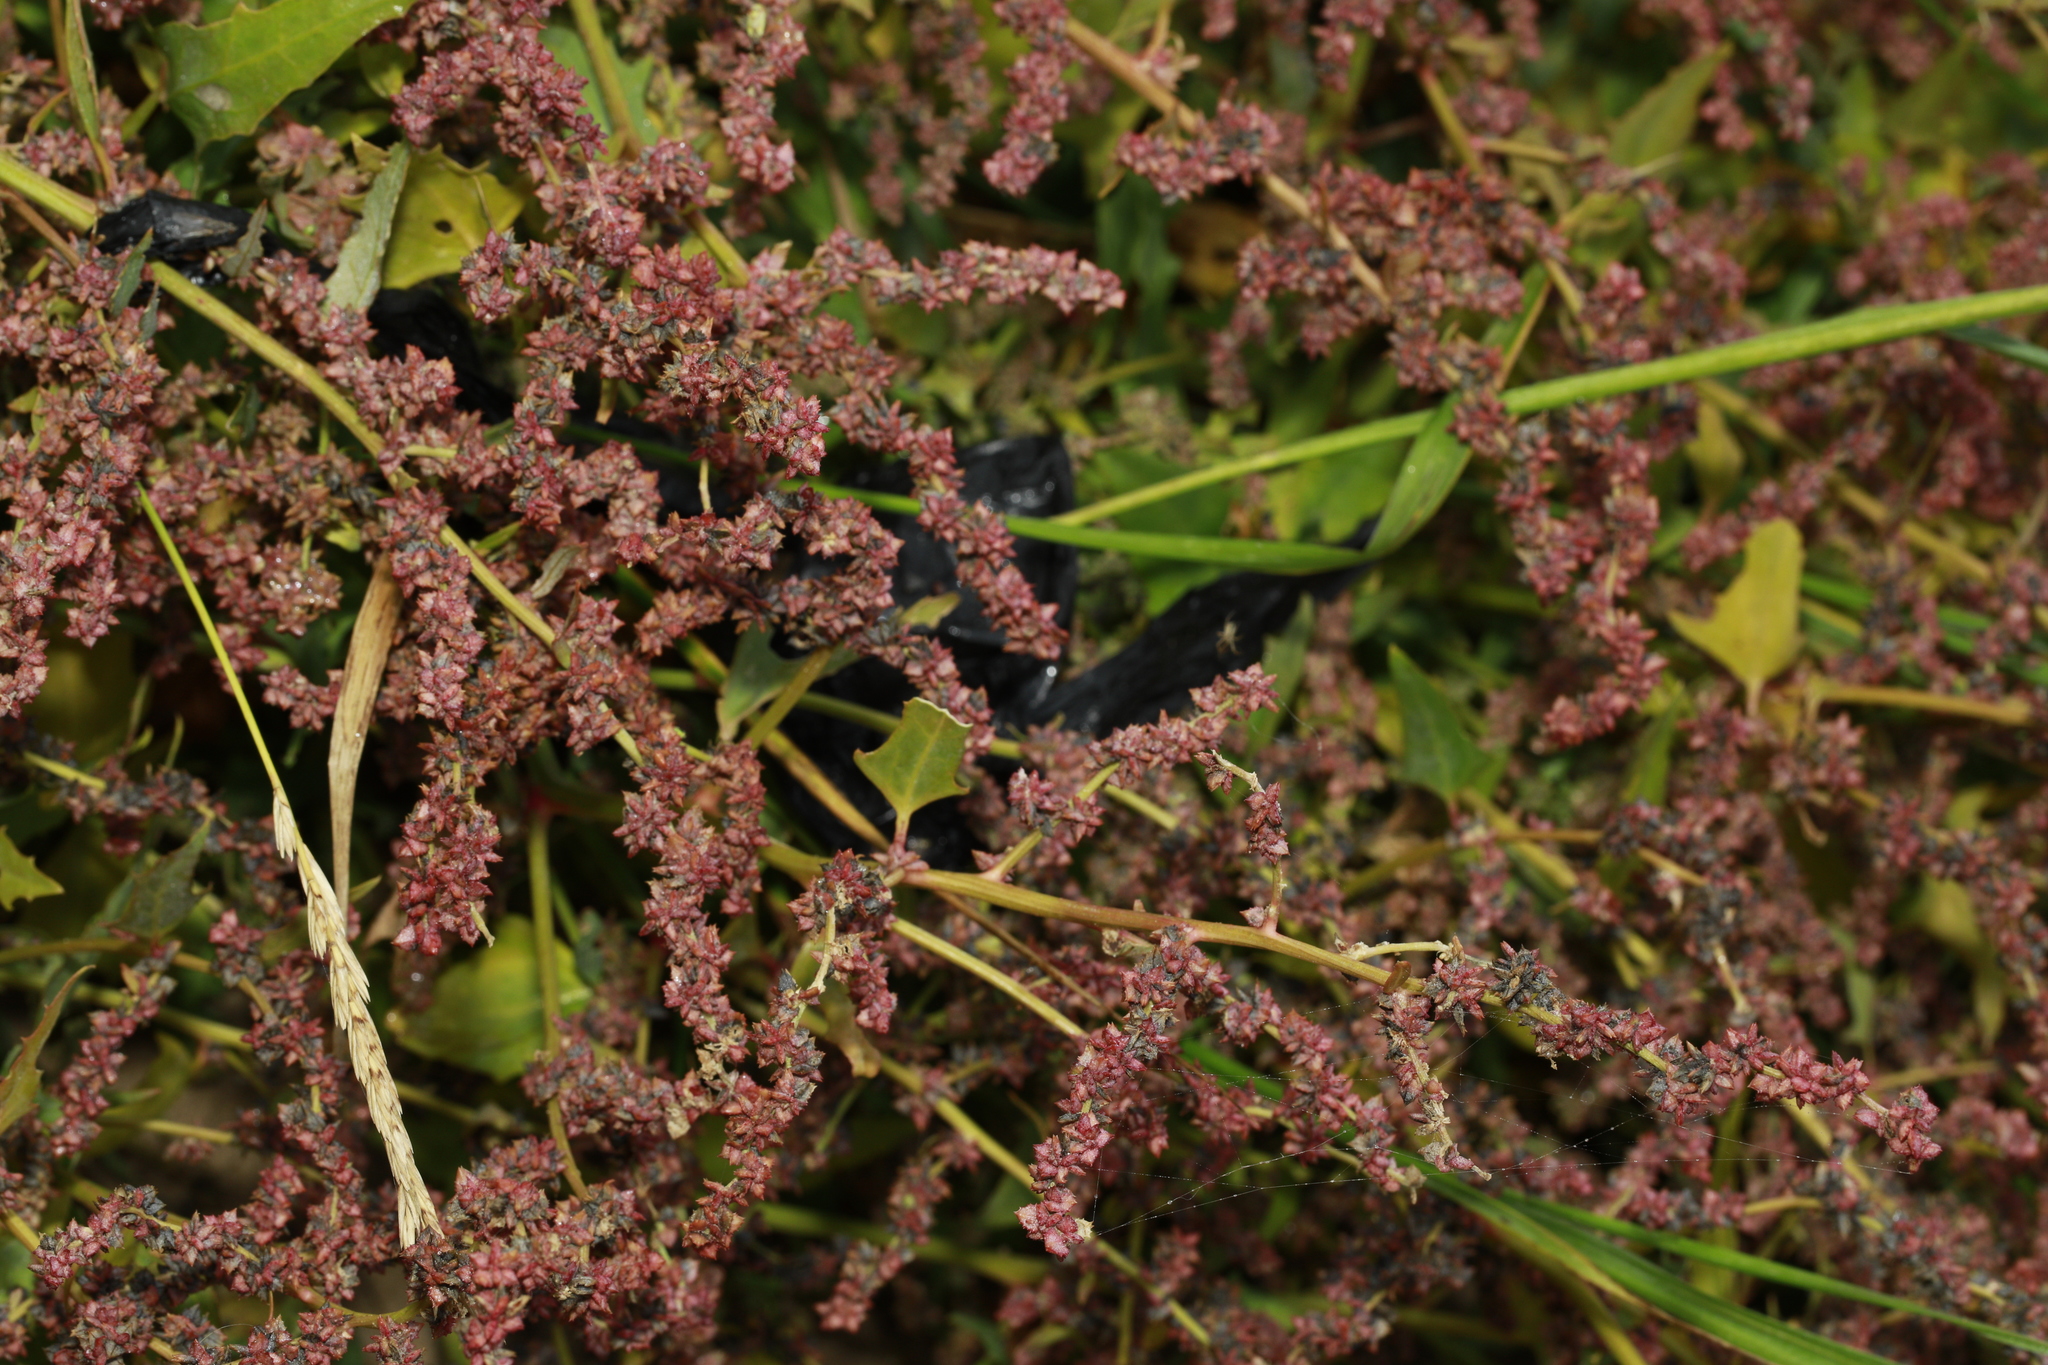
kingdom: Plantae
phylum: Tracheophyta
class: Magnoliopsida
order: Caryophyllales
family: Amaranthaceae
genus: Atriplex
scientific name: Atriplex prostrata
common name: Spear-leaved orache
